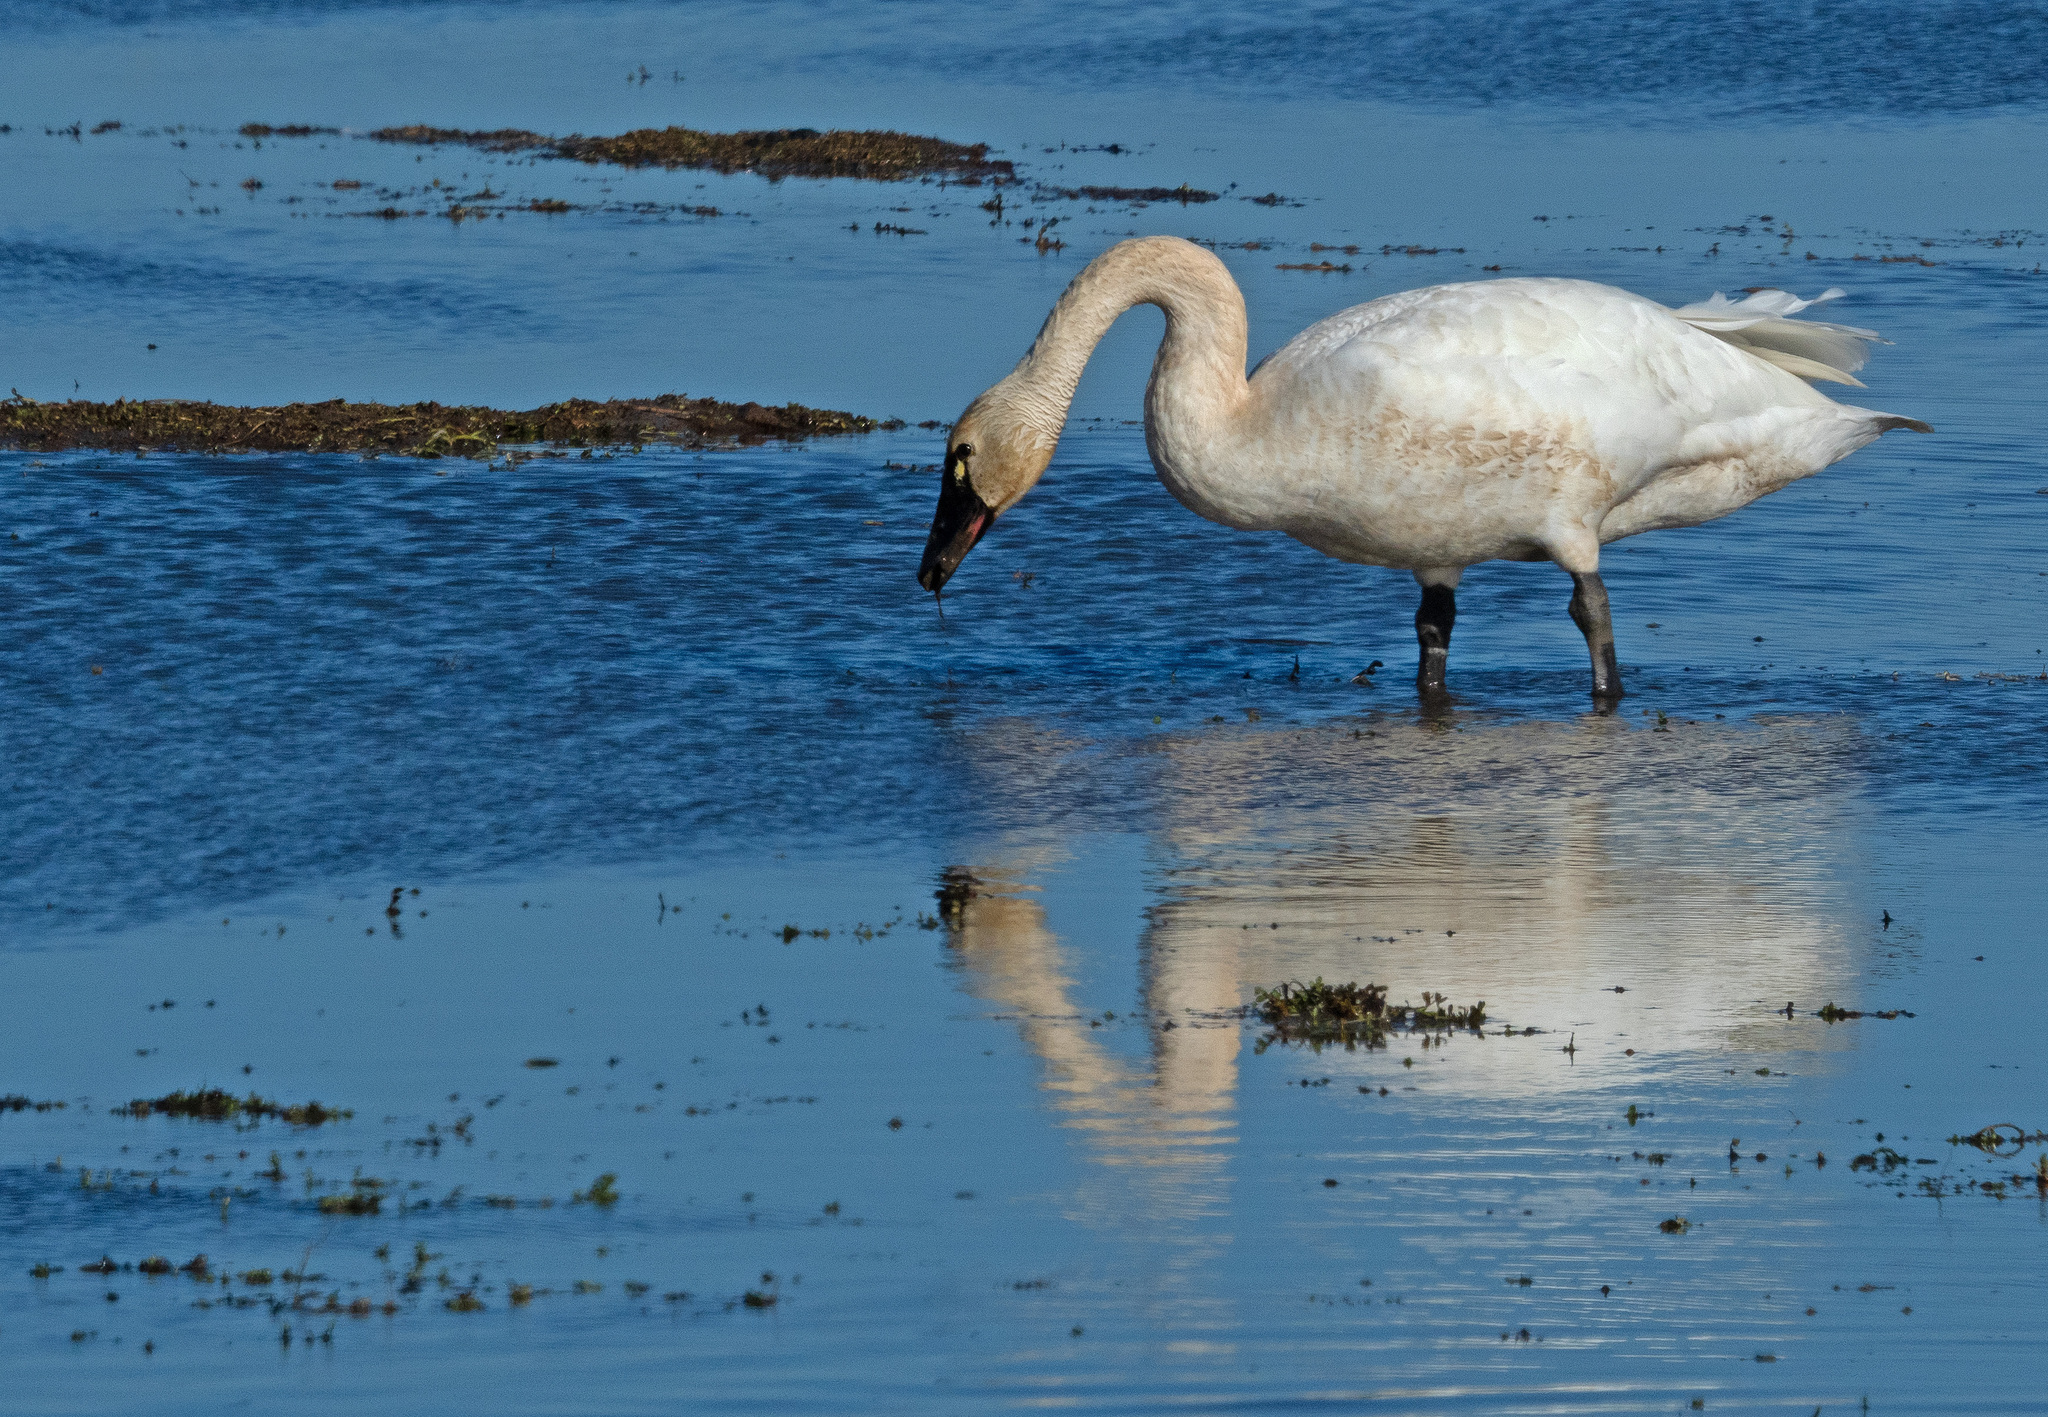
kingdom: Animalia
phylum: Chordata
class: Aves
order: Anseriformes
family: Anatidae
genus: Cygnus
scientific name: Cygnus columbianus
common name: Tundra swan
